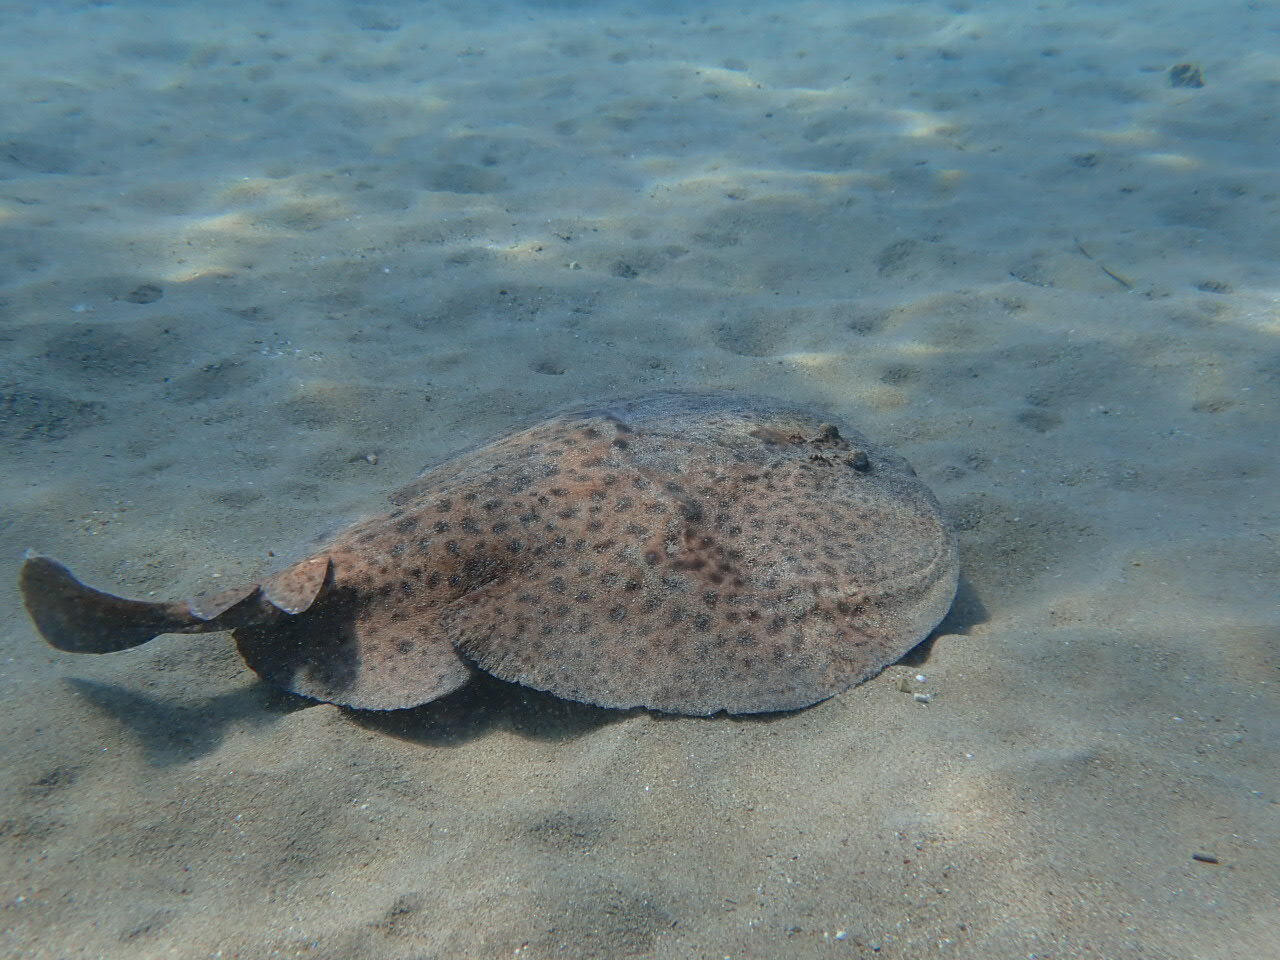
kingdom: Animalia
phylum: Chordata
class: Elasmobranchii
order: Torpediniformes
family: Torpedinidae
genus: Torpedo
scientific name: Torpedo marmorata
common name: Marbled electric ray
